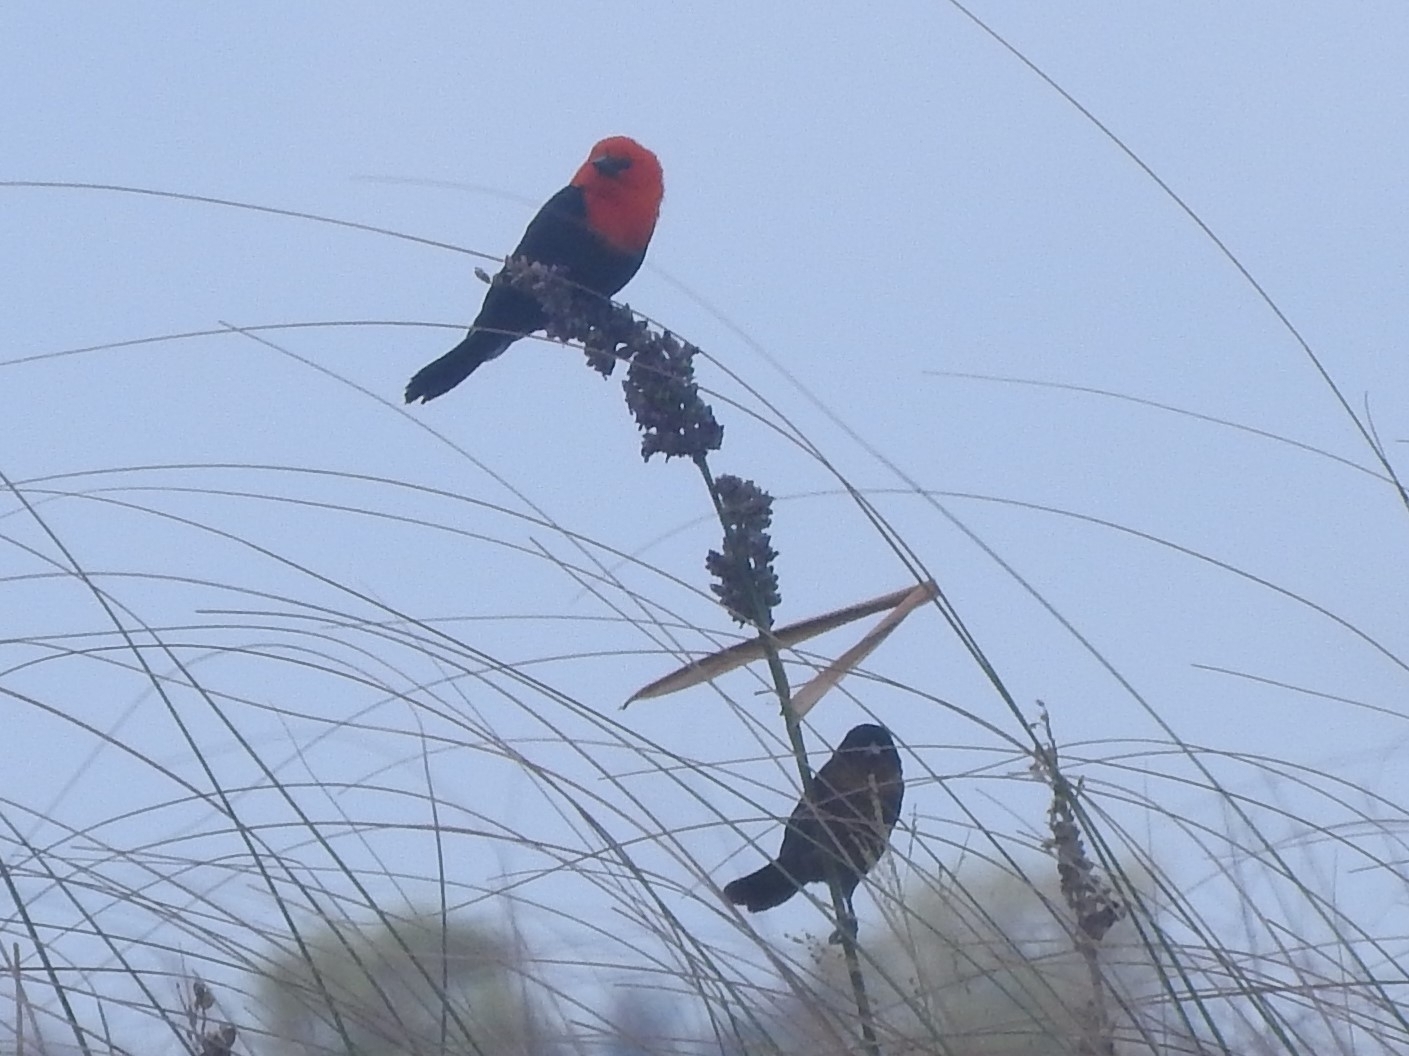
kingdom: Animalia
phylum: Chordata
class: Aves
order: Passeriformes
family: Icteridae
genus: Amblyramphus
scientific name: Amblyramphus holosericeus
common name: Scarlet-headed blackbird
